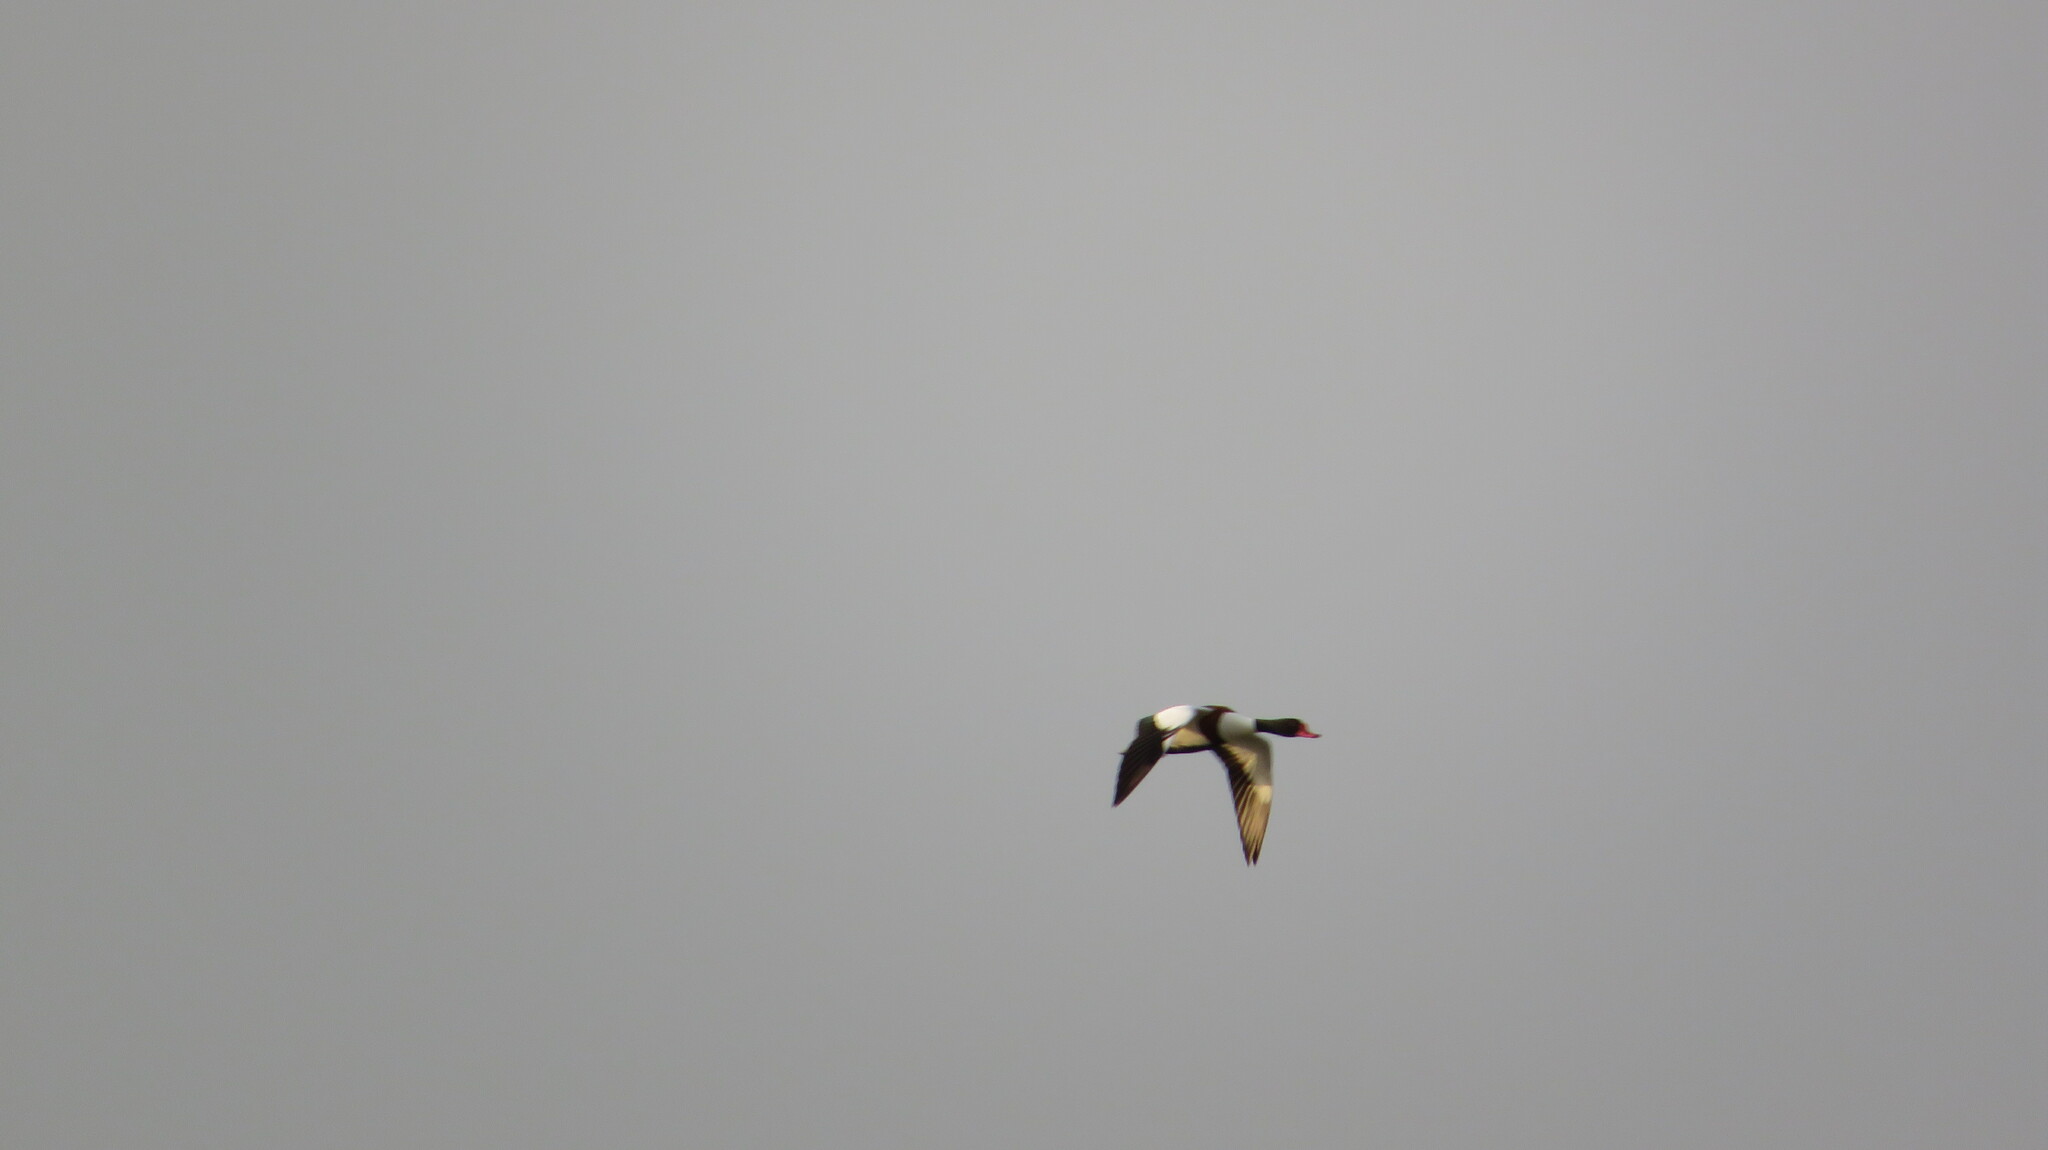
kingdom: Animalia
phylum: Chordata
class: Aves
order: Anseriformes
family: Anatidae
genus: Tadorna
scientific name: Tadorna tadorna
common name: Common shelduck
